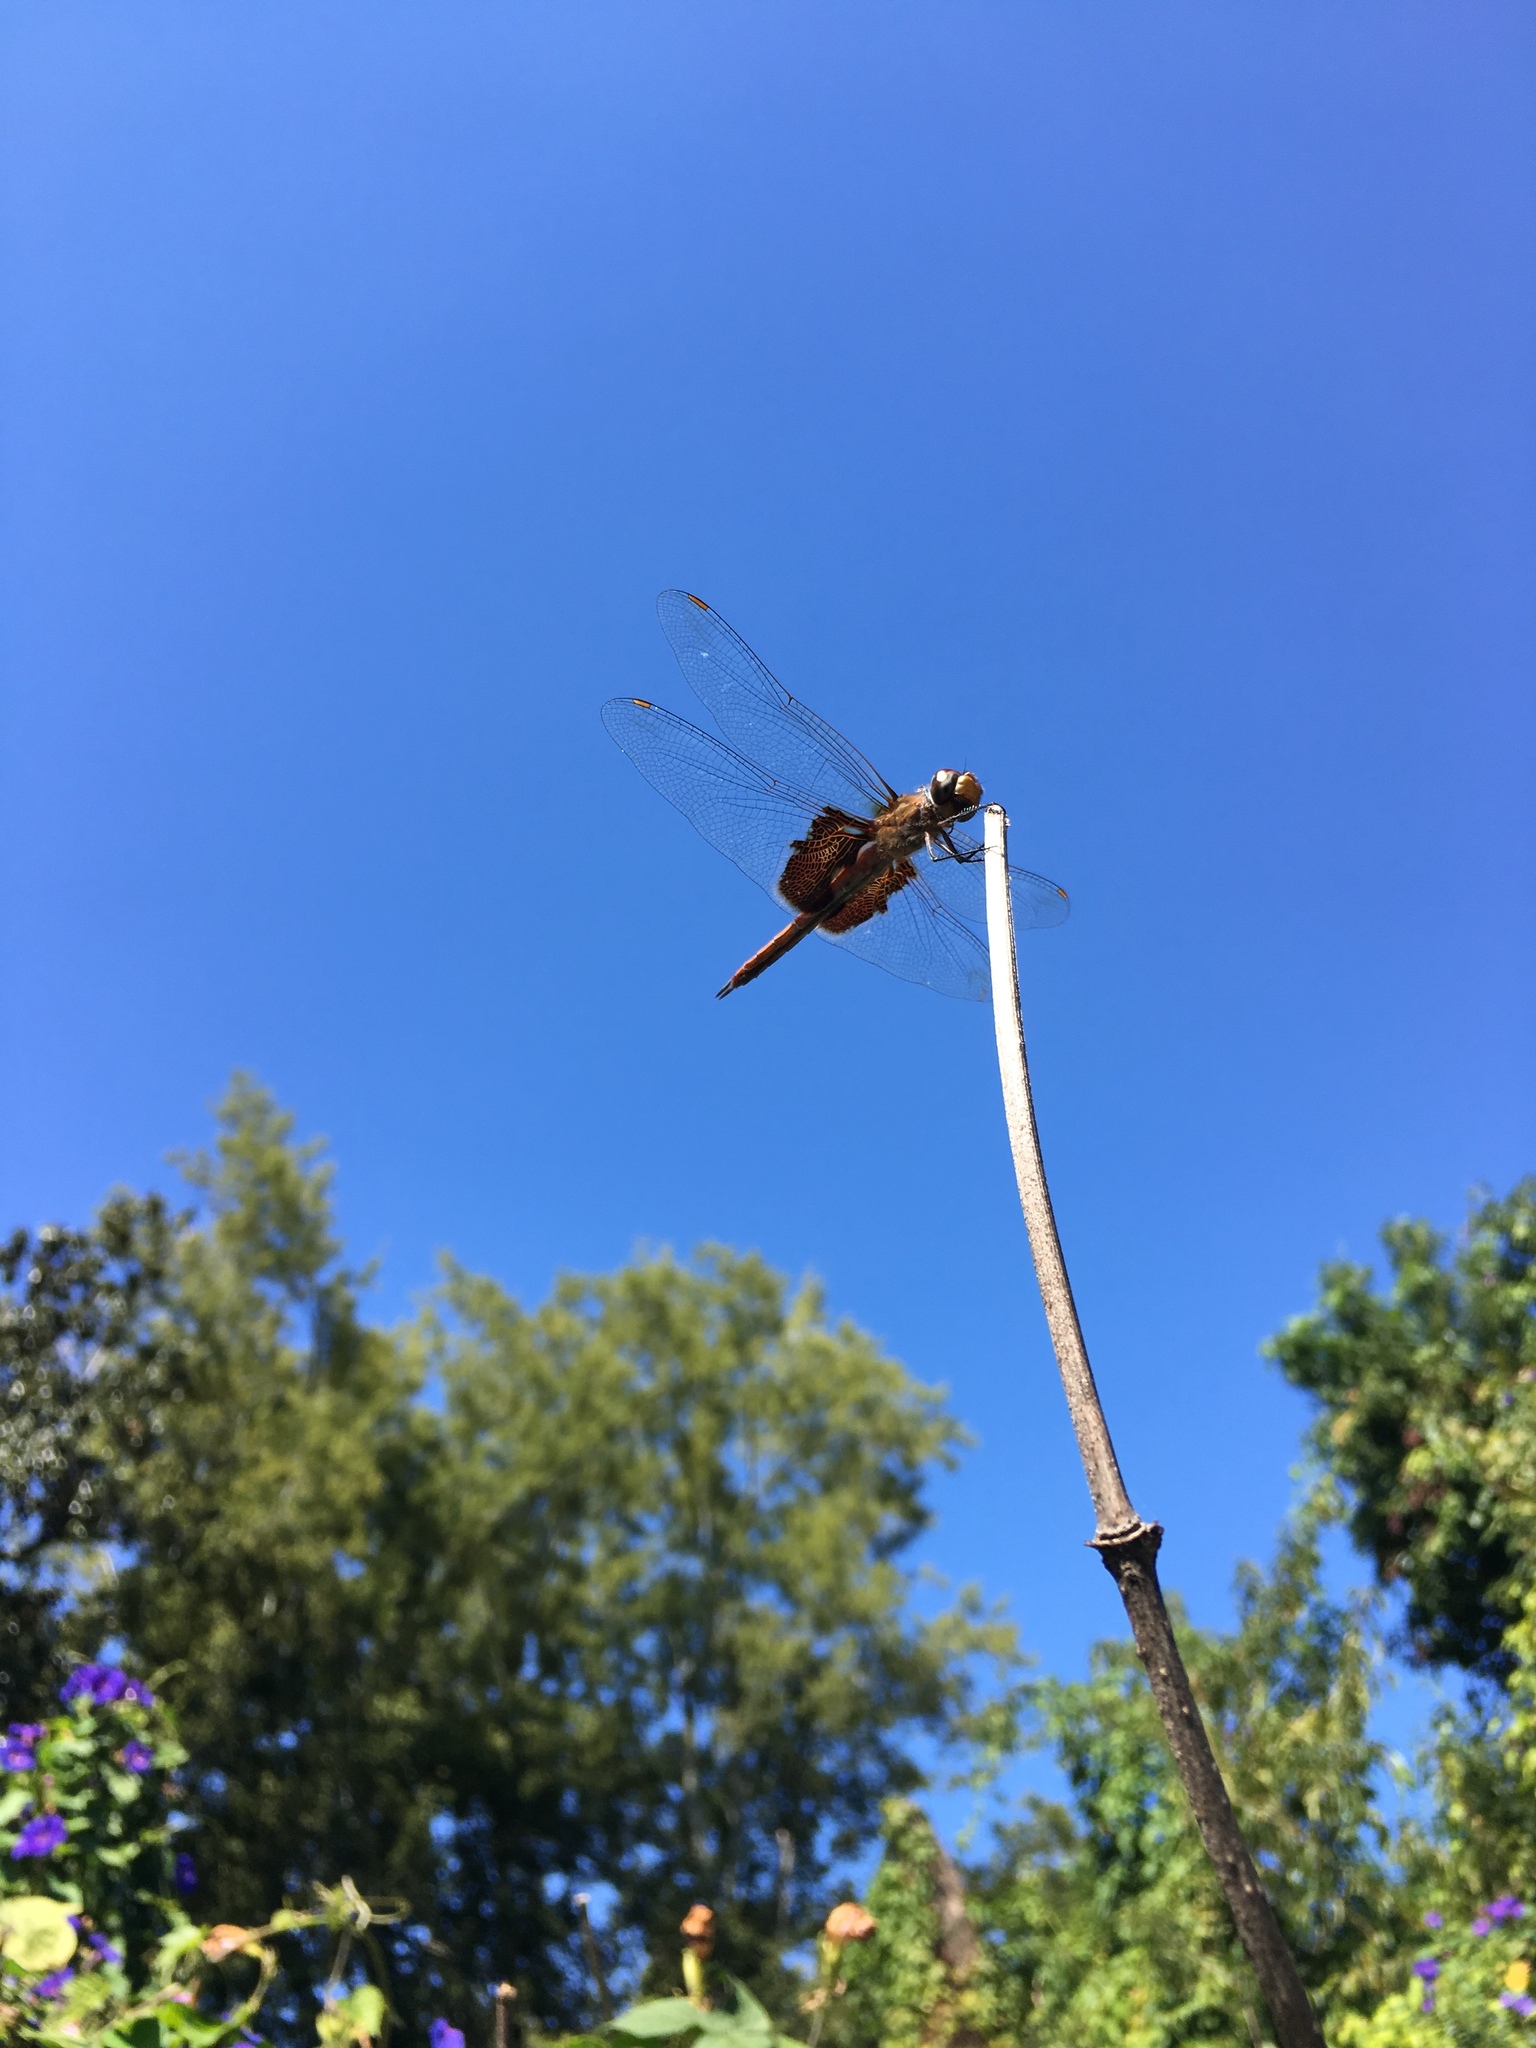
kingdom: Animalia
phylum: Arthropoda
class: Insecta
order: Odonata
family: Libellulidae
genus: Tramea
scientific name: Tramea onusta
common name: Red saddlebags
